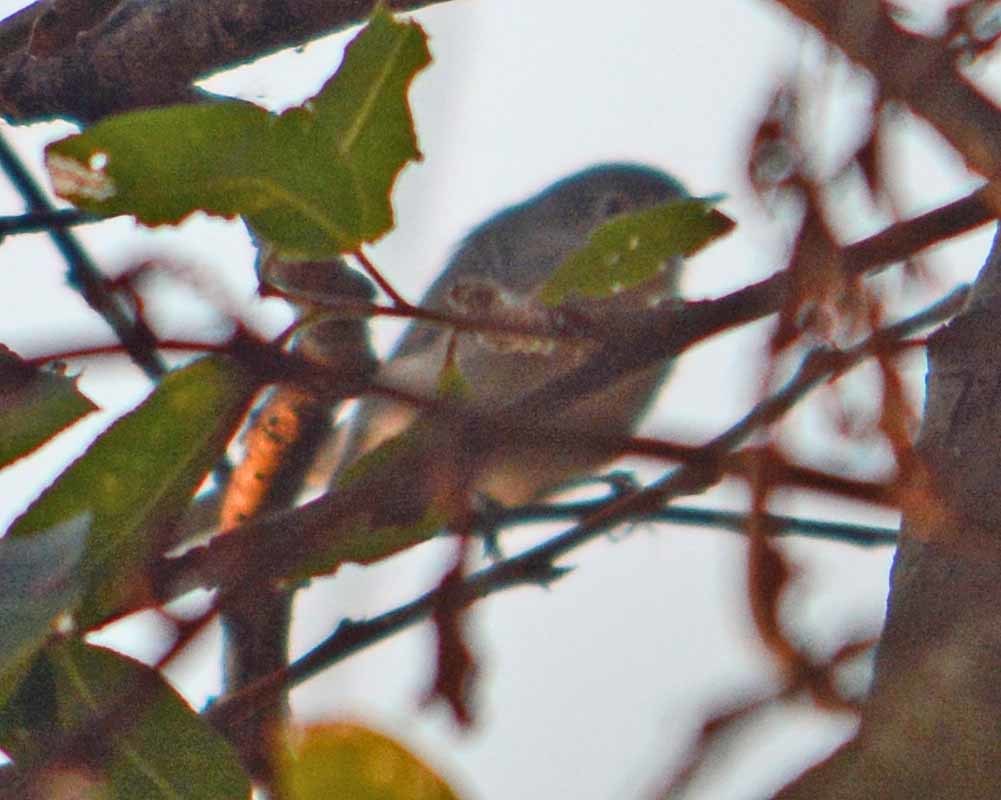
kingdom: Animalia
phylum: Chordata
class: Aves
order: Passeriformes
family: Polioptilidae
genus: Polioptila
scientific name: Polioptila caerulea
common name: Blue-gray gnatcatcher
